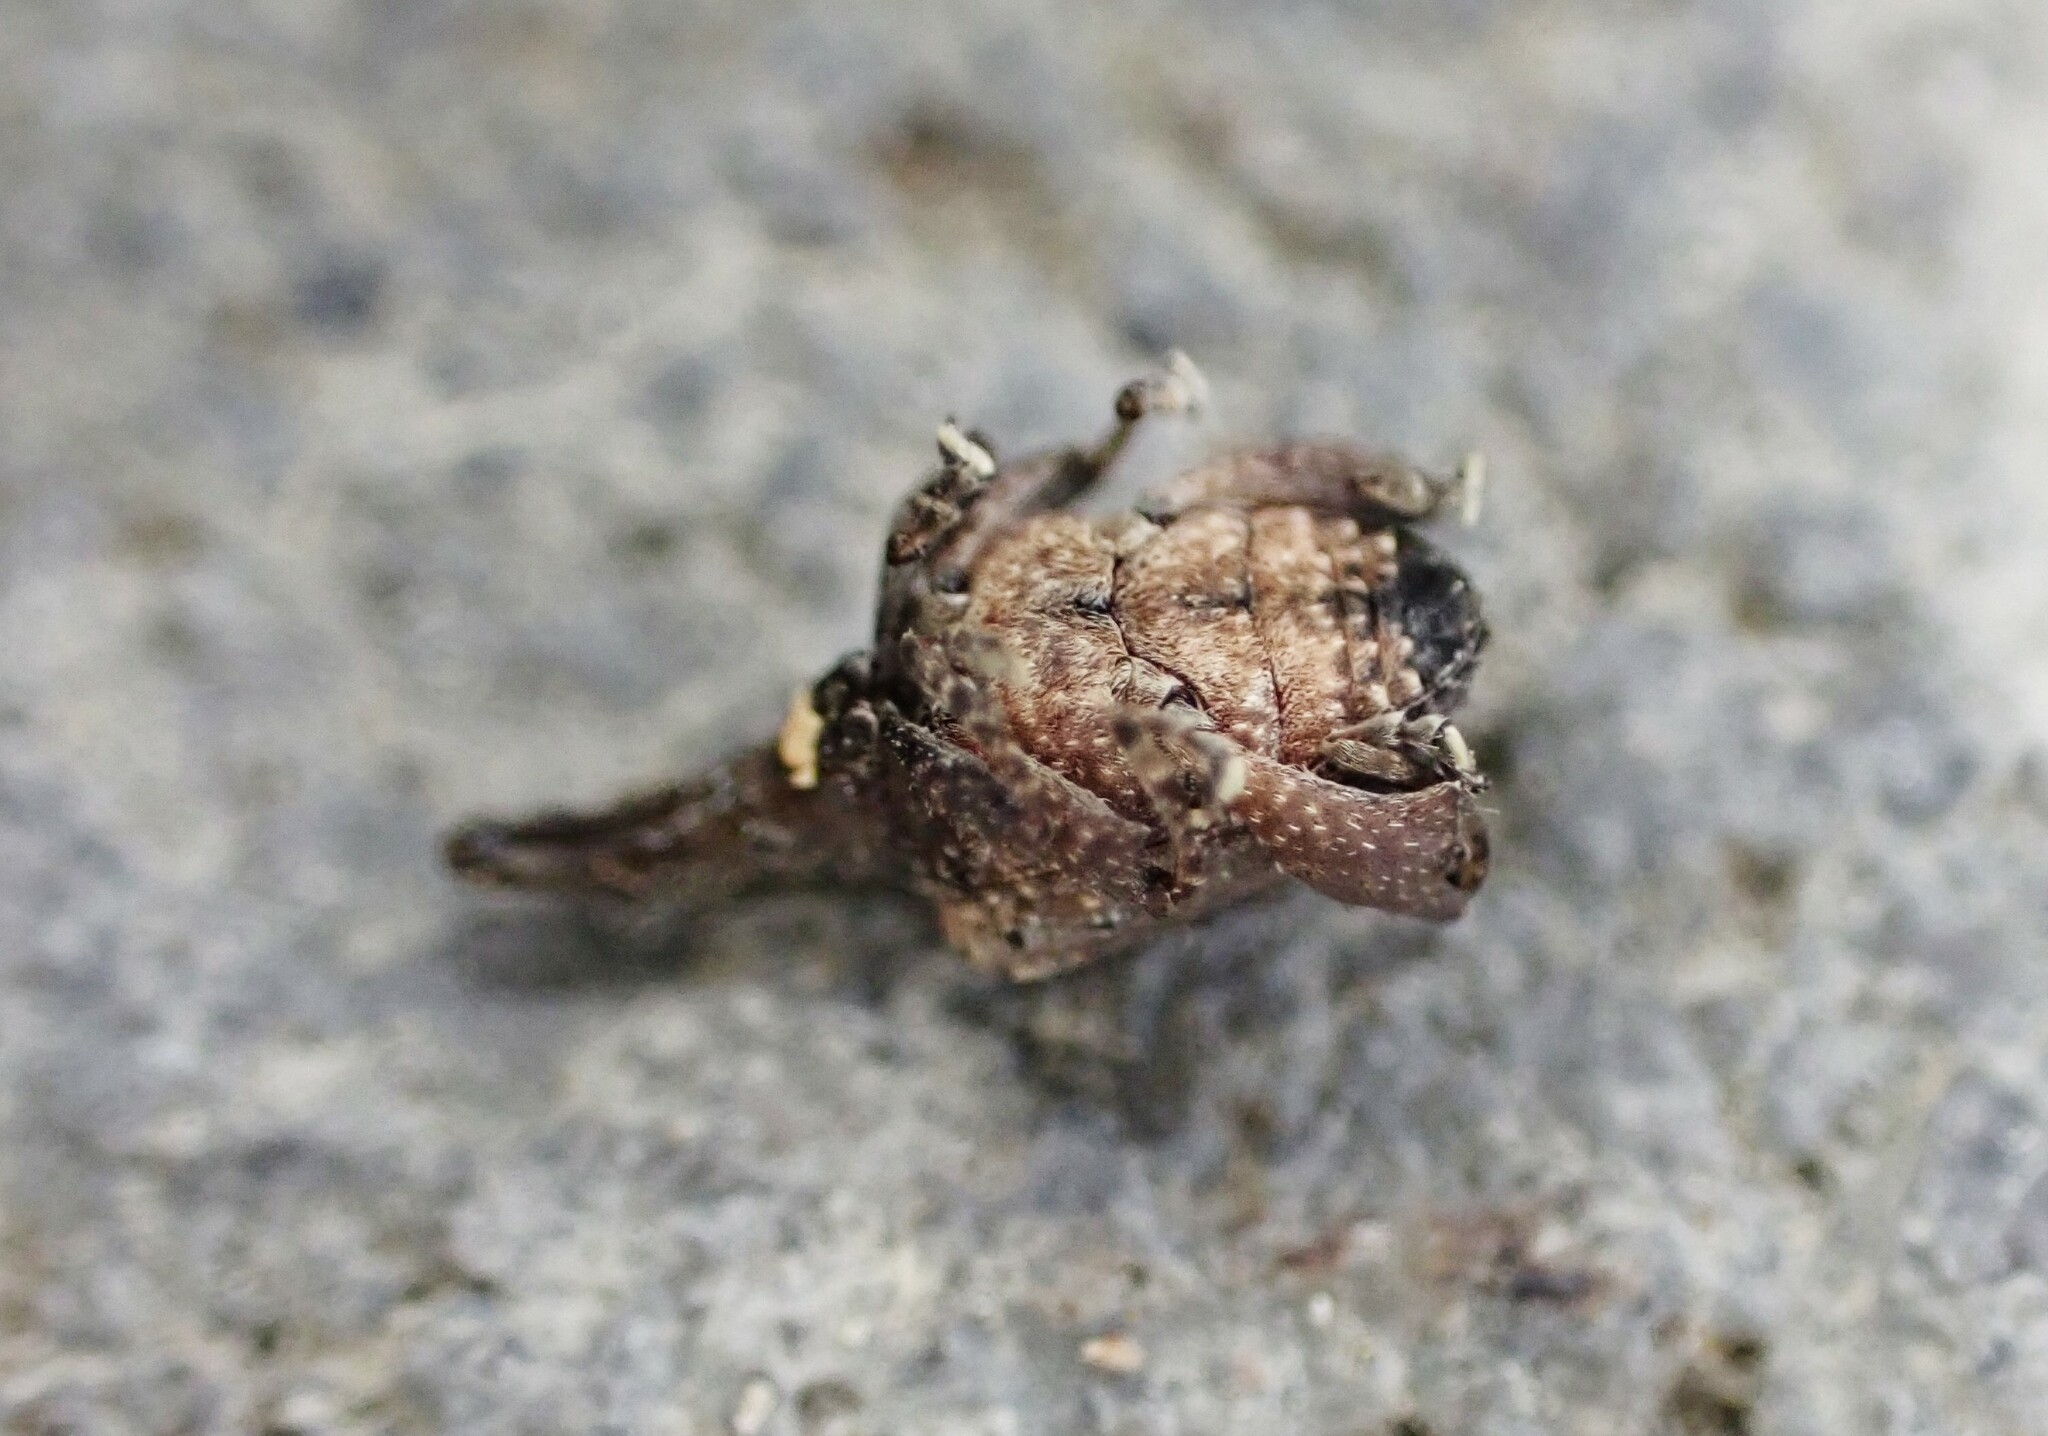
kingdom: Animalia
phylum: Arthropoda
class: Insecta
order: Coleoptera
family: Curculionidae
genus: Stephanorrhynchus
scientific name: Stephanorrhynchus crassus
